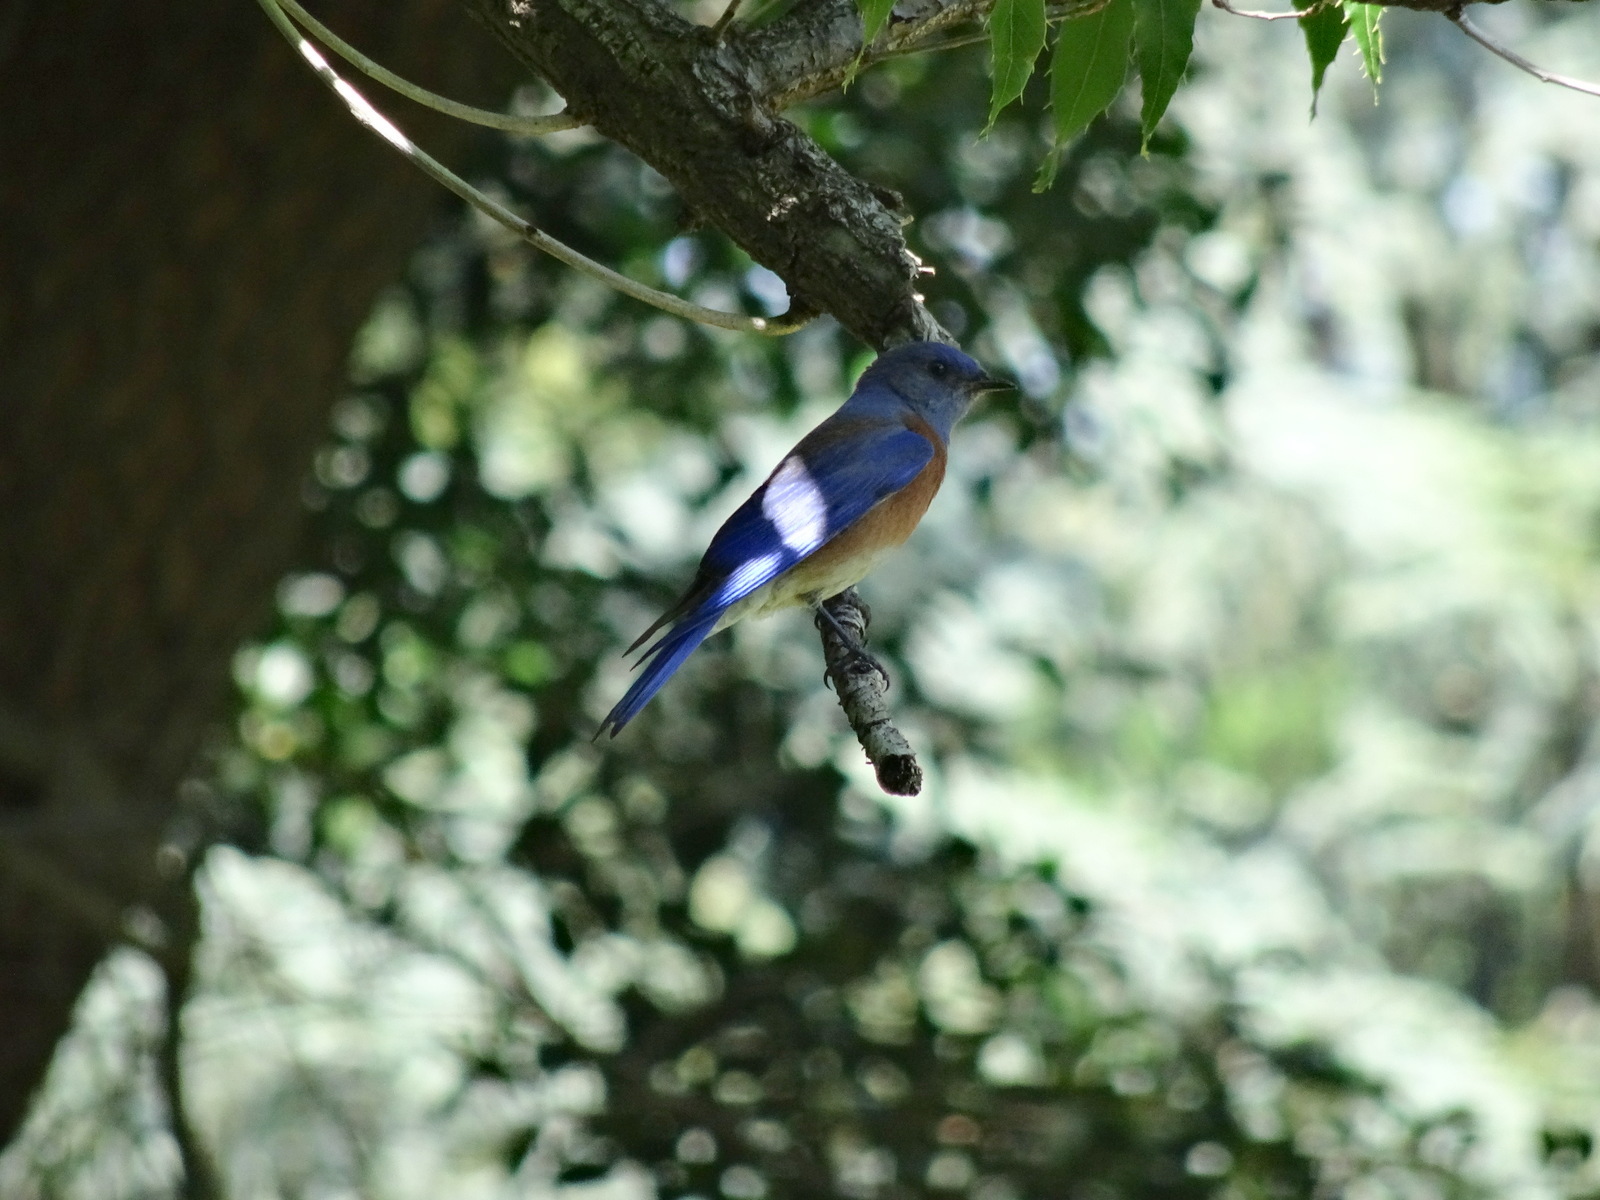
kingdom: Animalia
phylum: Chordata
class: Aves
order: Passeriformes
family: Turdidae
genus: Sialia
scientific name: Sialia mexicana
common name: Western bluebird
